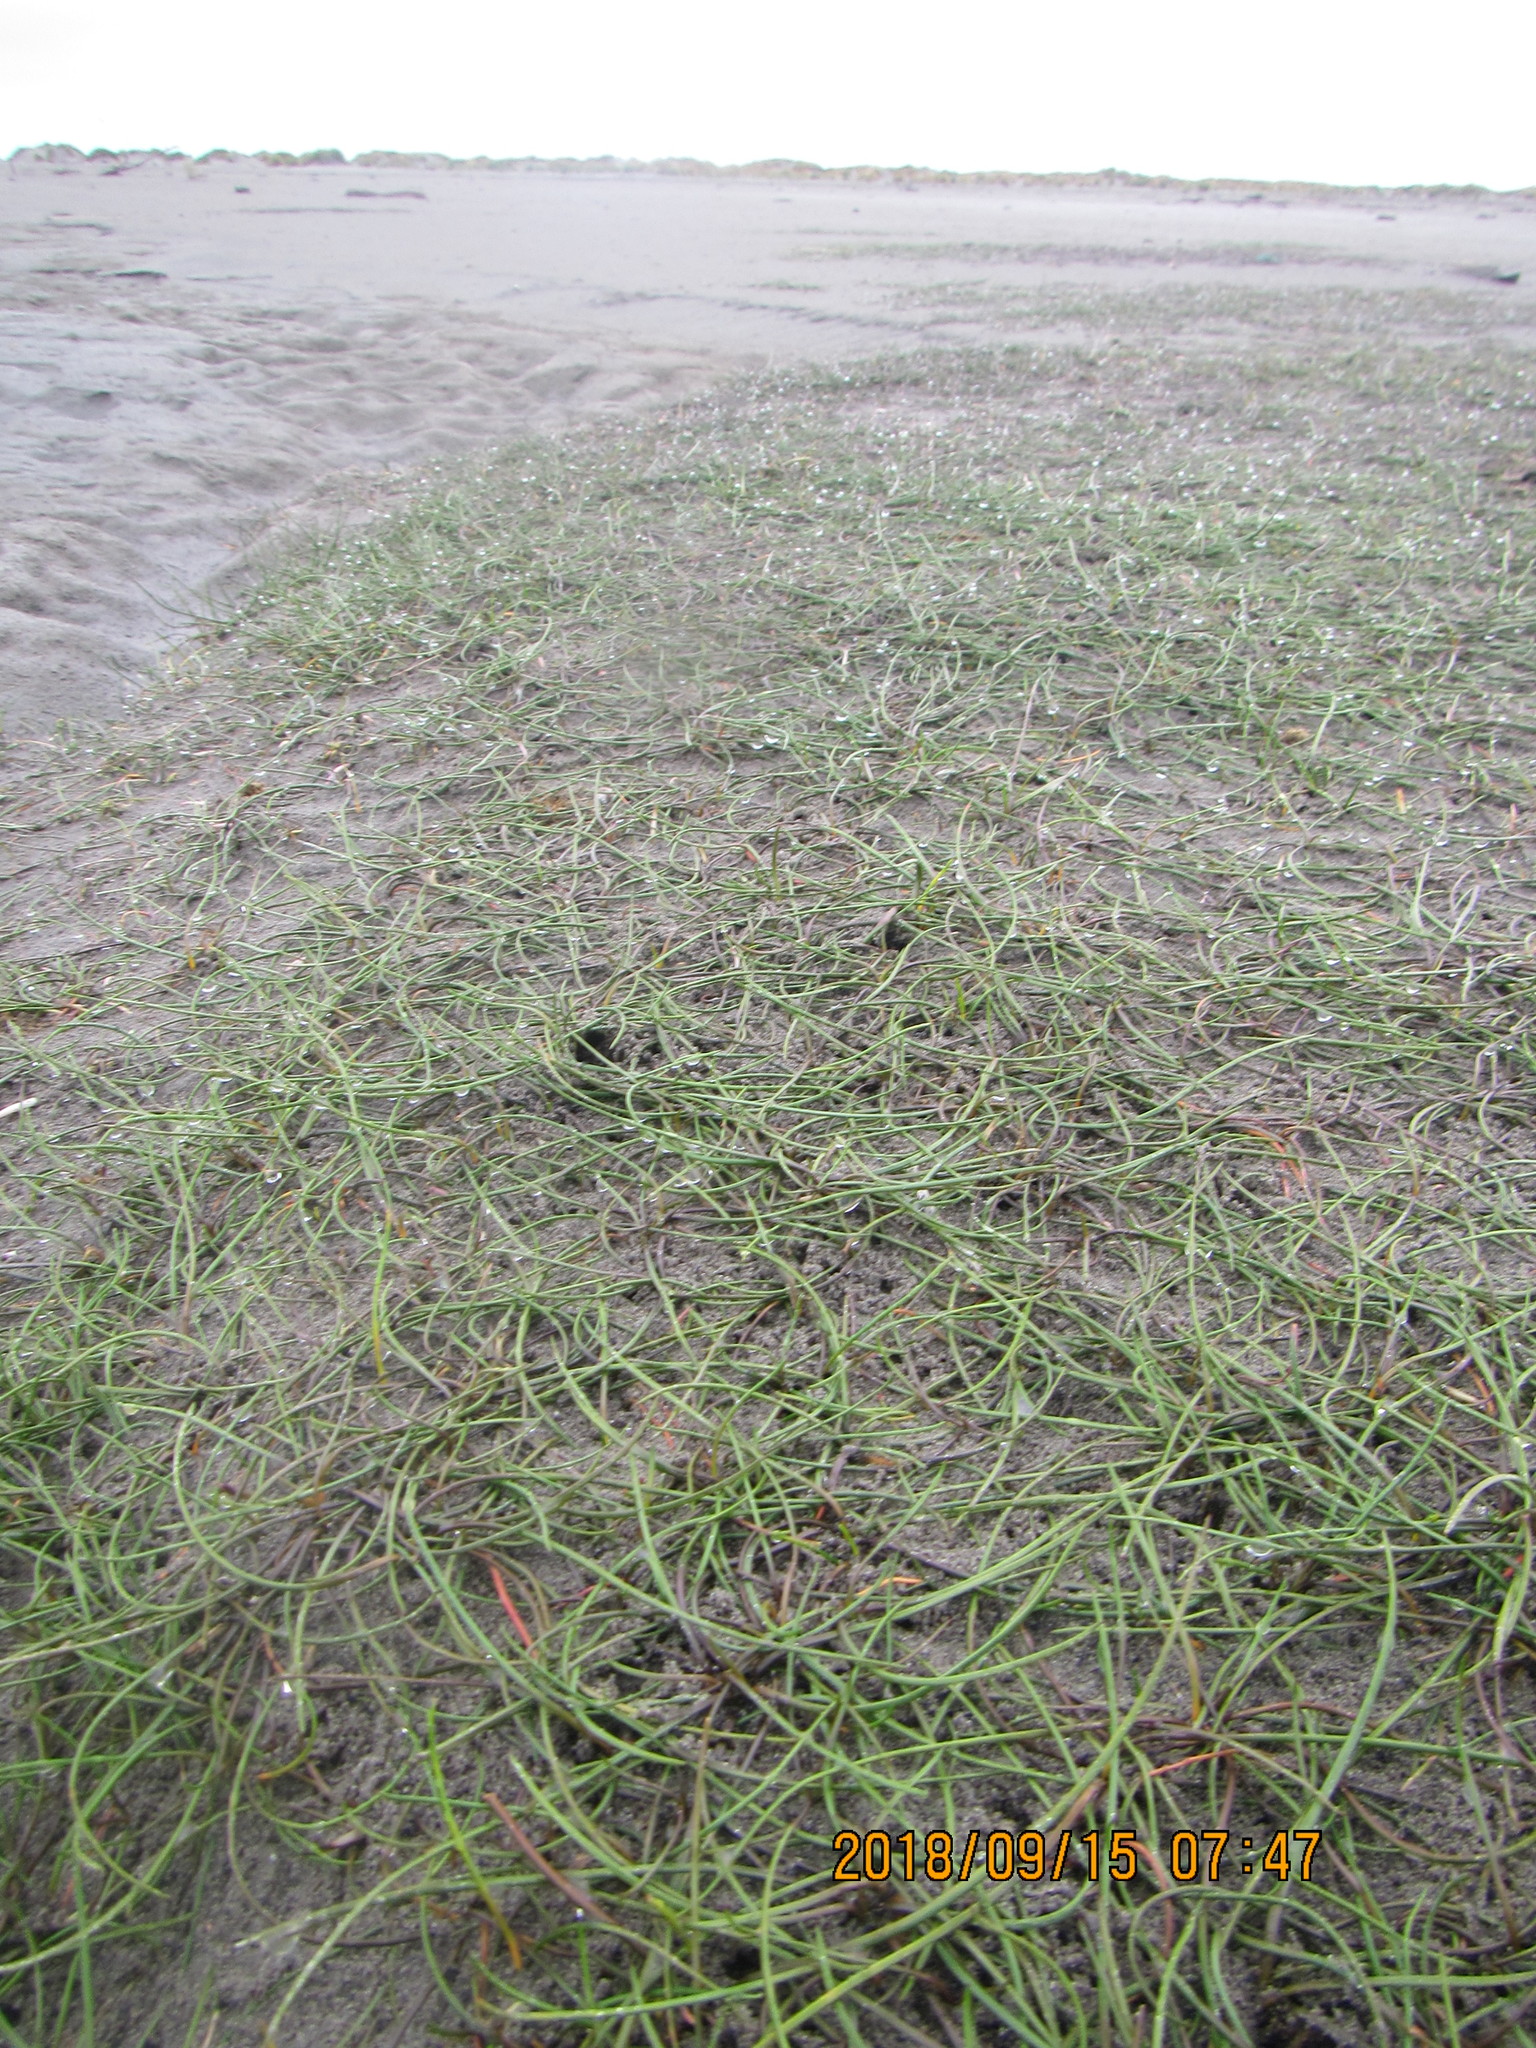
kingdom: Plantae
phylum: Tracheophyta
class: Liliopsida
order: Alismatales
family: Juncaginaceae
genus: Triglochin
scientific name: Triglochin striata
